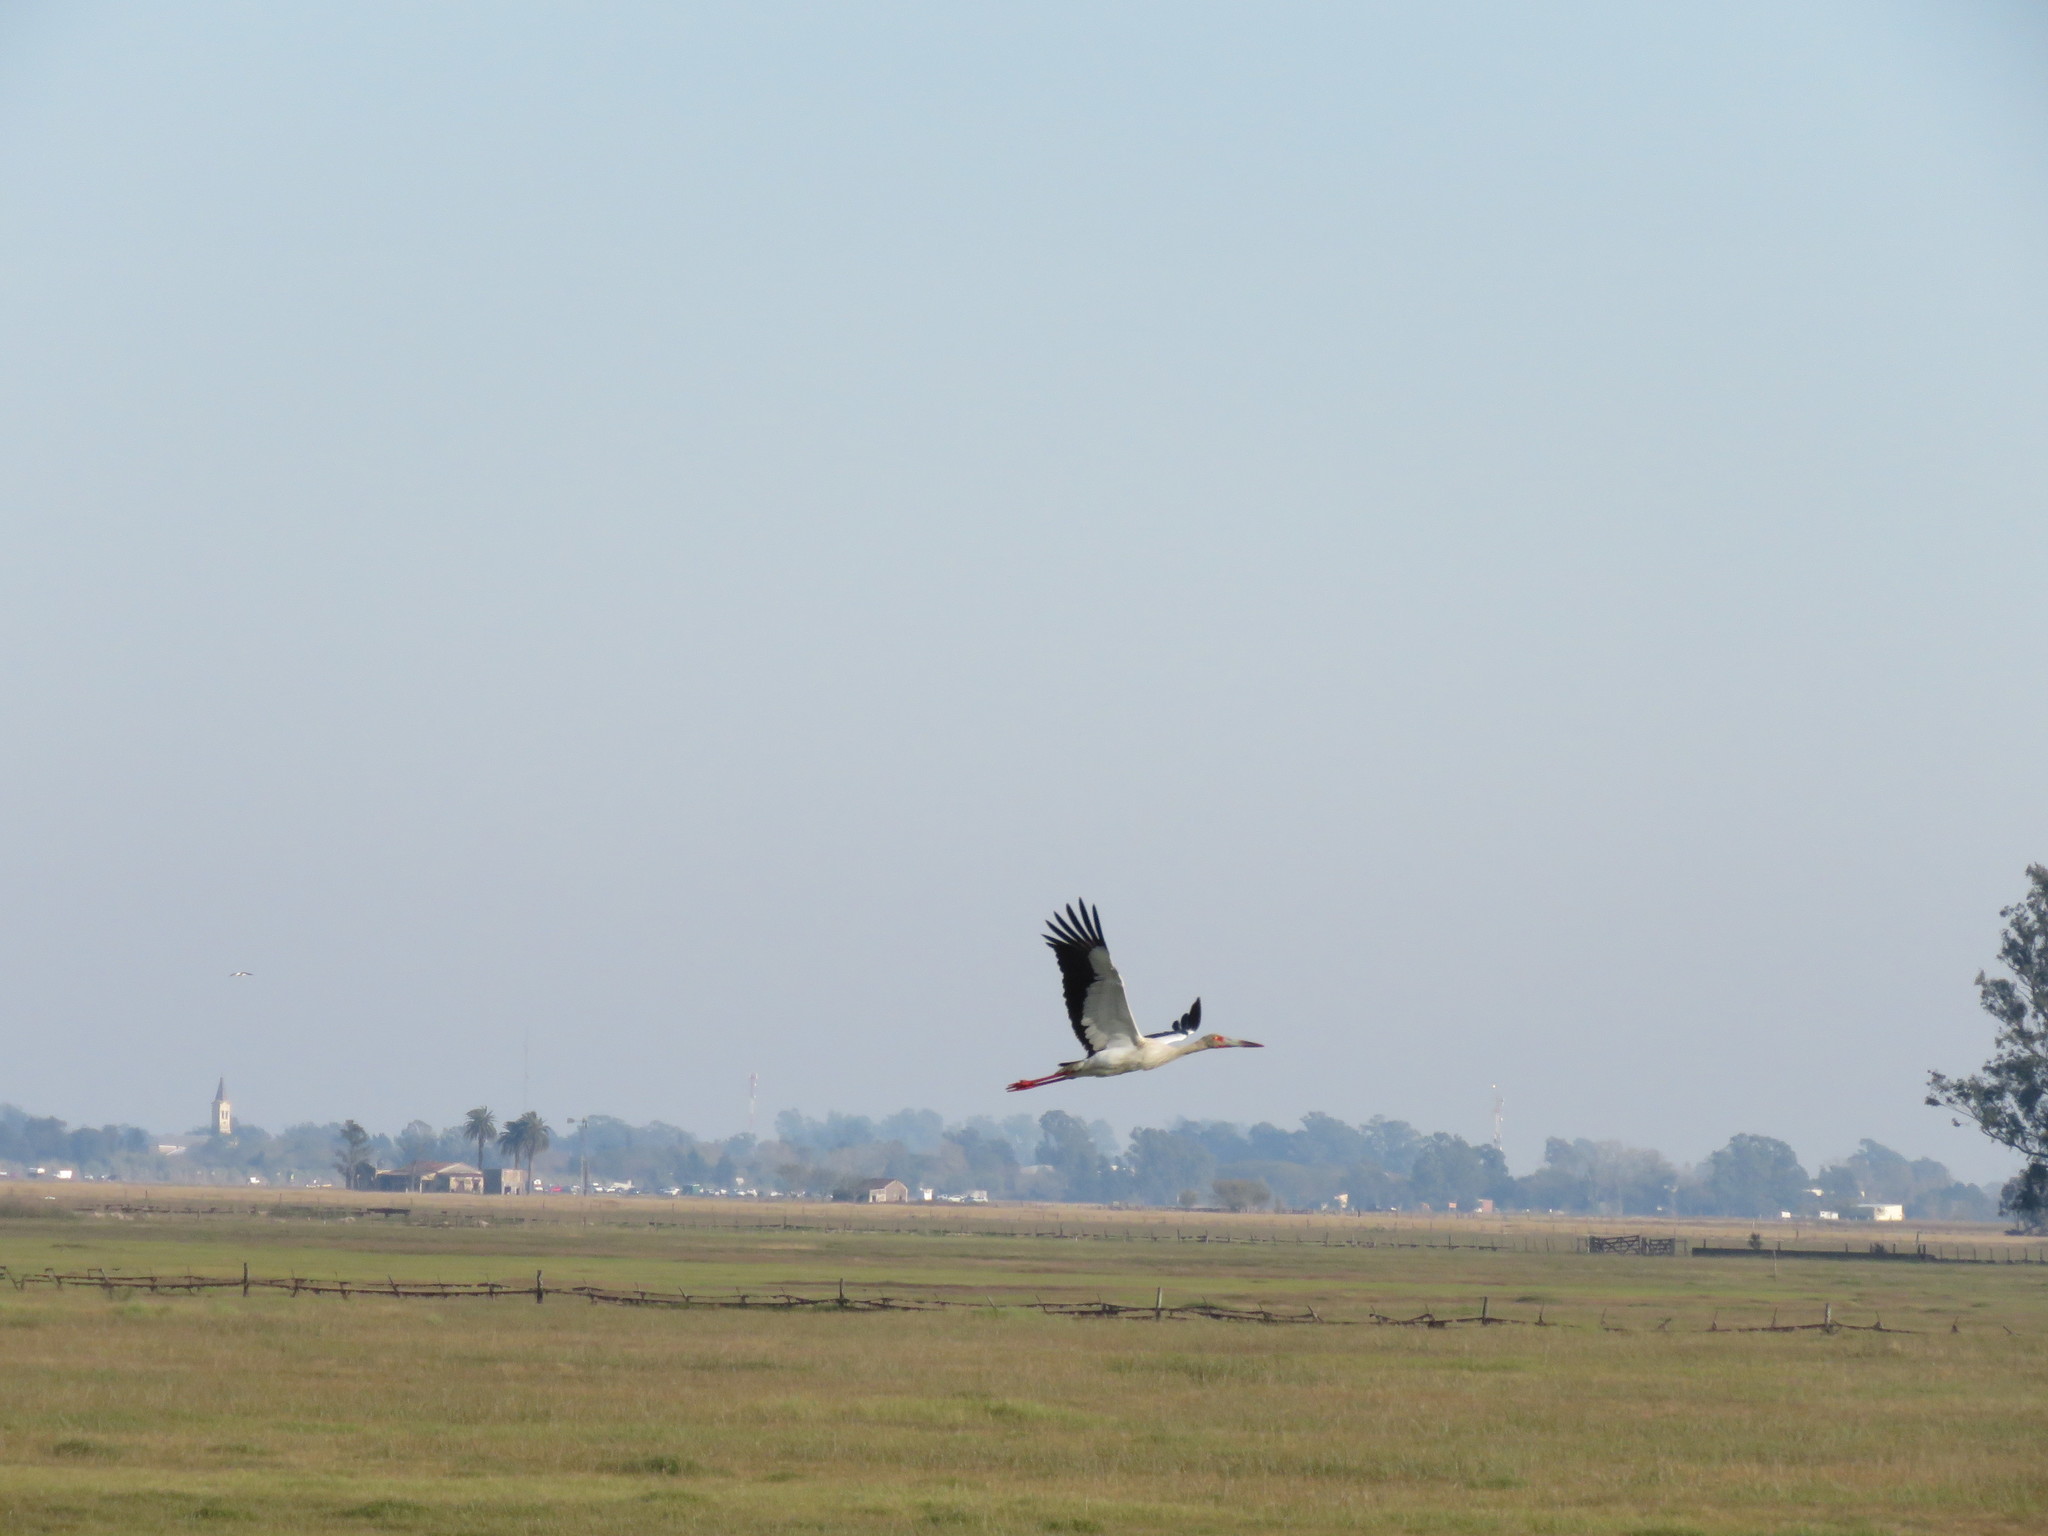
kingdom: Animalia
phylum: Chordata
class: Aves
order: Ciconiiformes
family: Ciconiidae
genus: Ciconia
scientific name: Ciconia maguari
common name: Maguari stork
